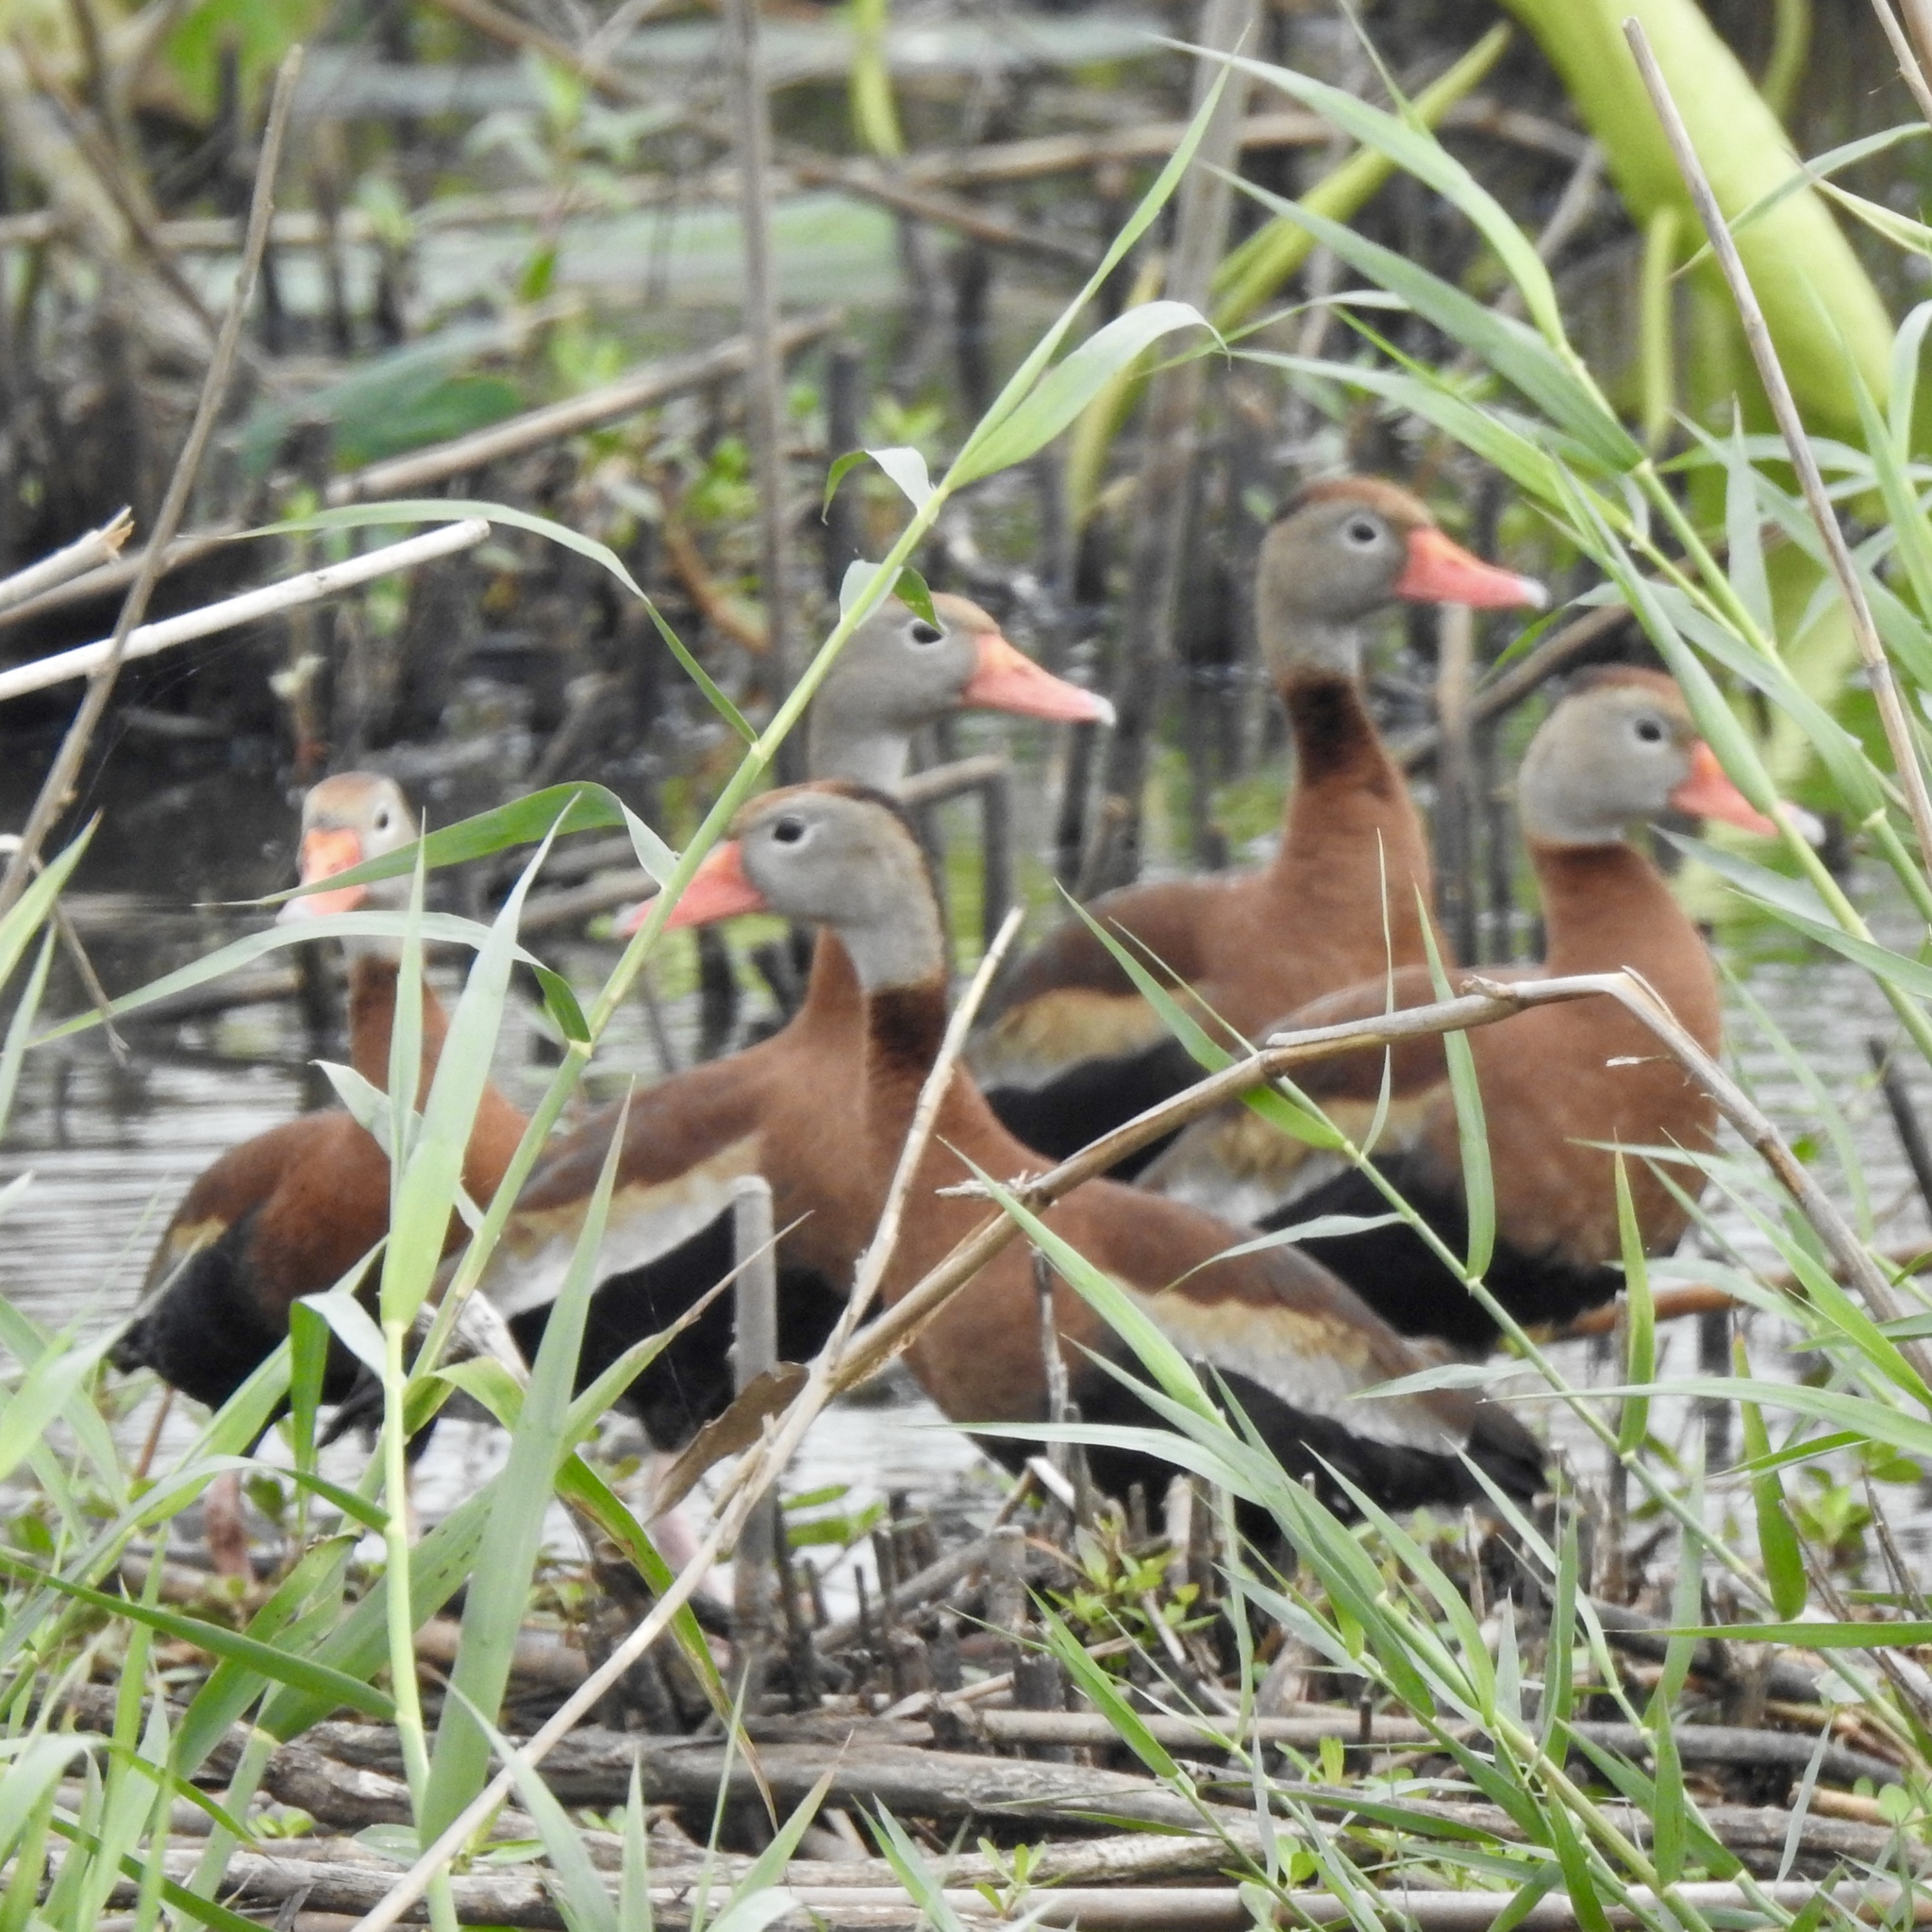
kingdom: Animalia
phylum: Chordata
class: Aves
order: Anseriformes
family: Anatidae
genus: Dendrocygna
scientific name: Dendrocygna autumnalis
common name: Black-bellied whistling duck
